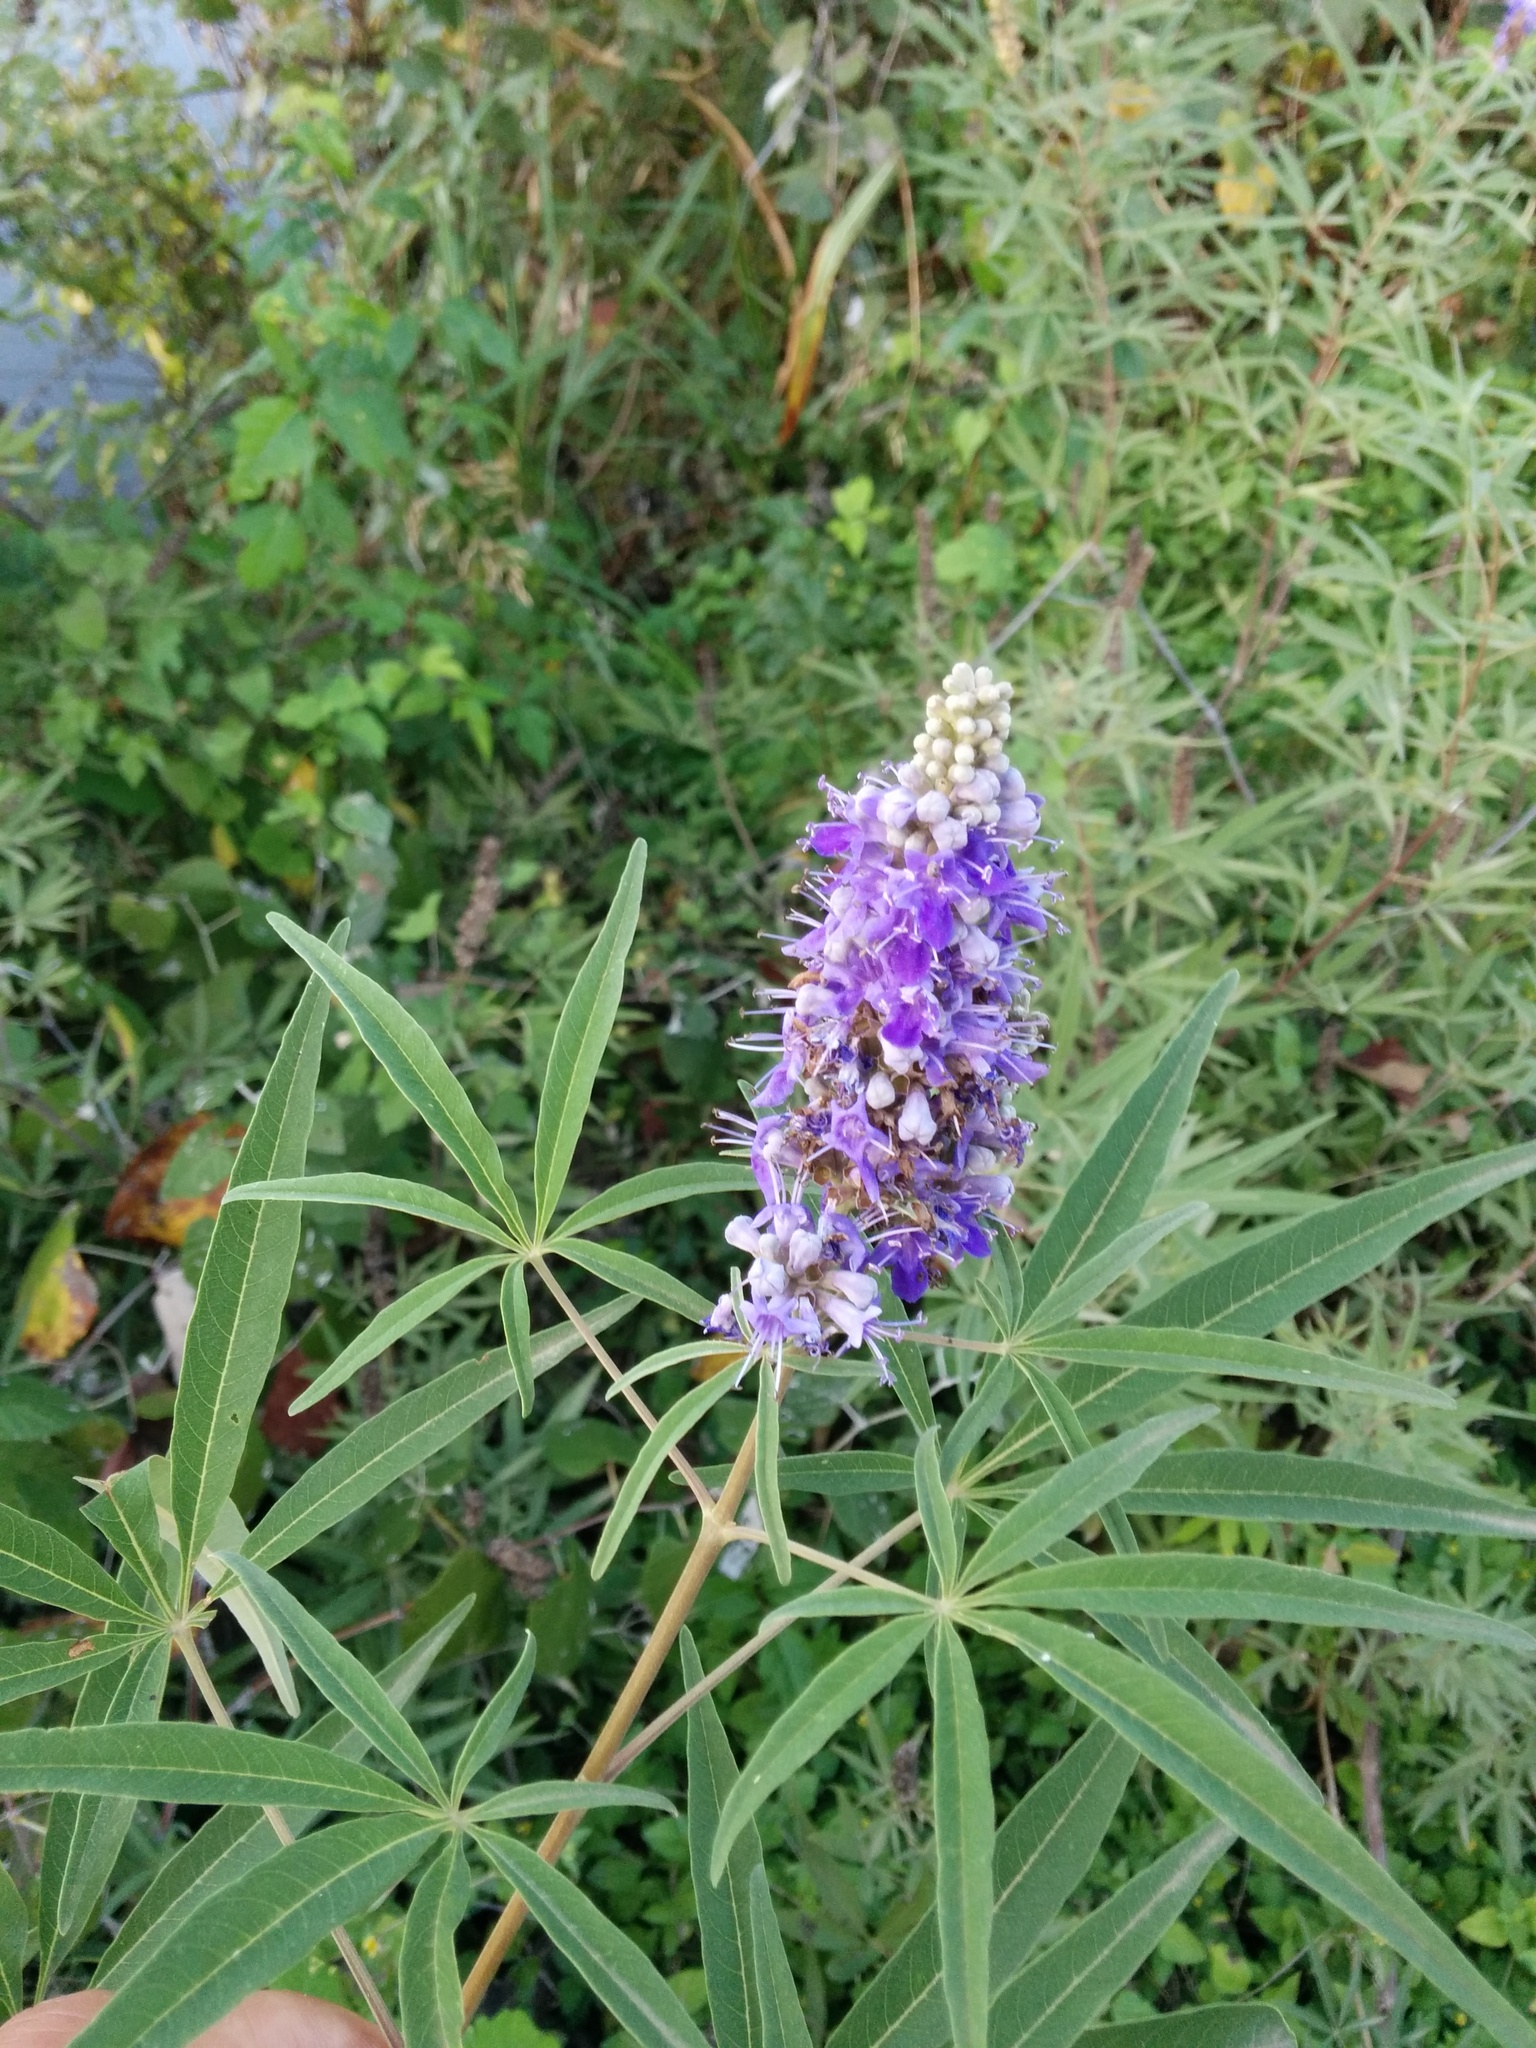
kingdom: Plantae
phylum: Tracheophyta
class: Magnoliopsida
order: Lamiales
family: Lamiaceae
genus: Vitex
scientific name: Vitex agnus-castus
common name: Chasteberry
